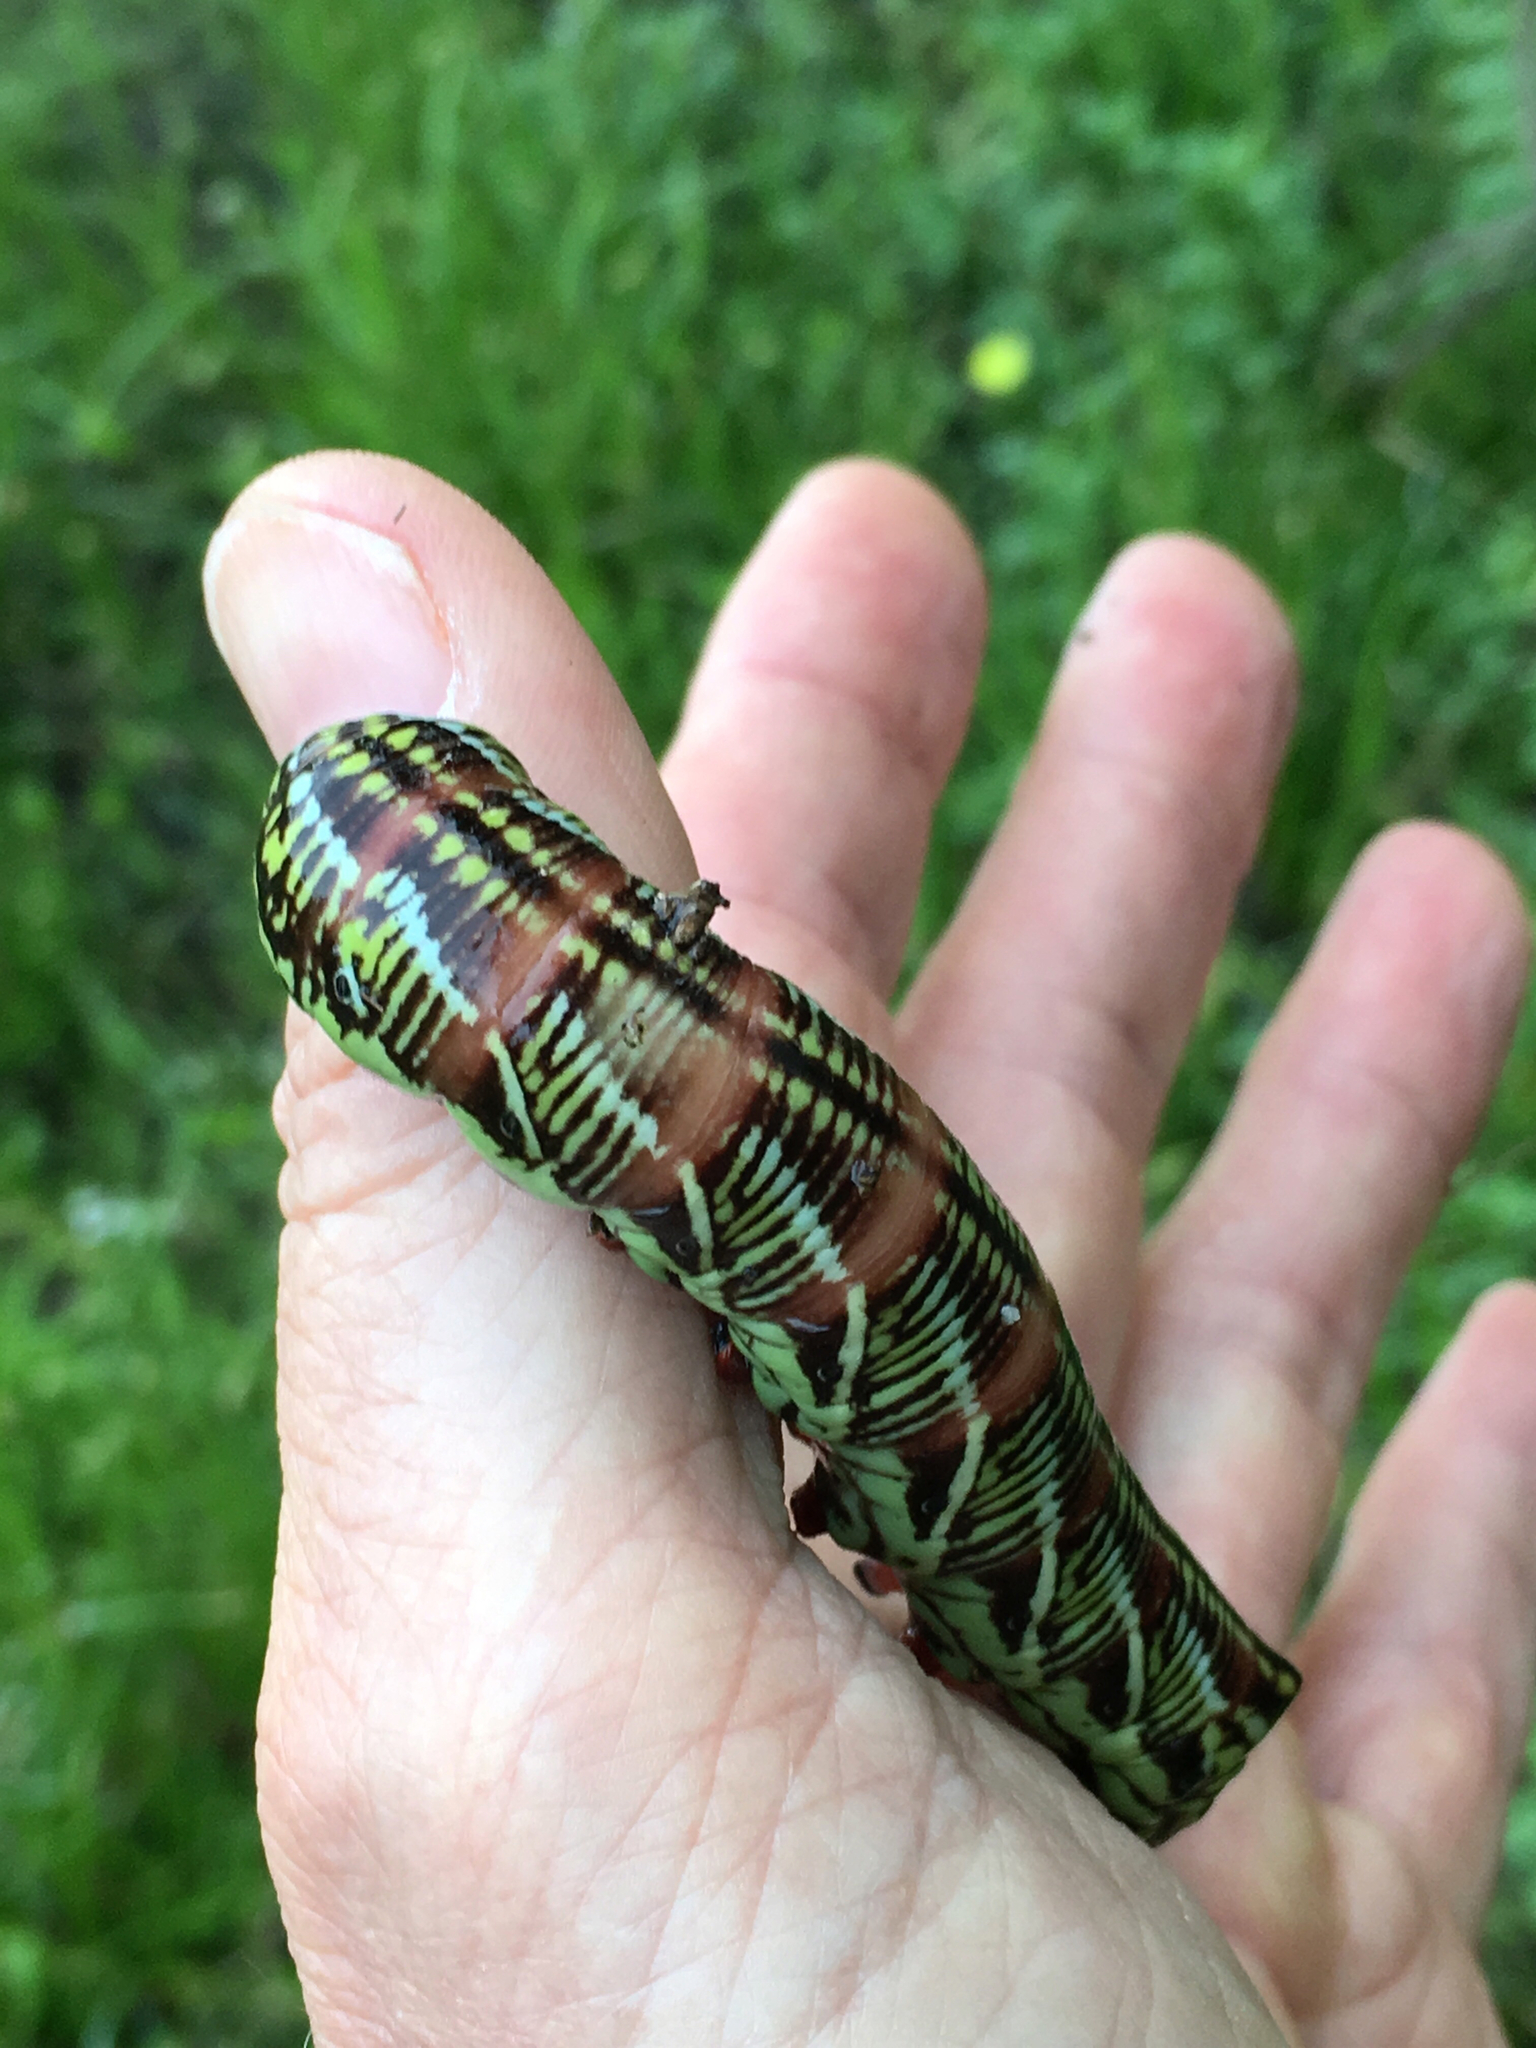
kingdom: Animalia
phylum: Arthropoda
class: Insecta
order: Lepidoptera
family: Sphingidae
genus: Eumorpha
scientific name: Eumorpha fasciatus
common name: Banded sphinx
